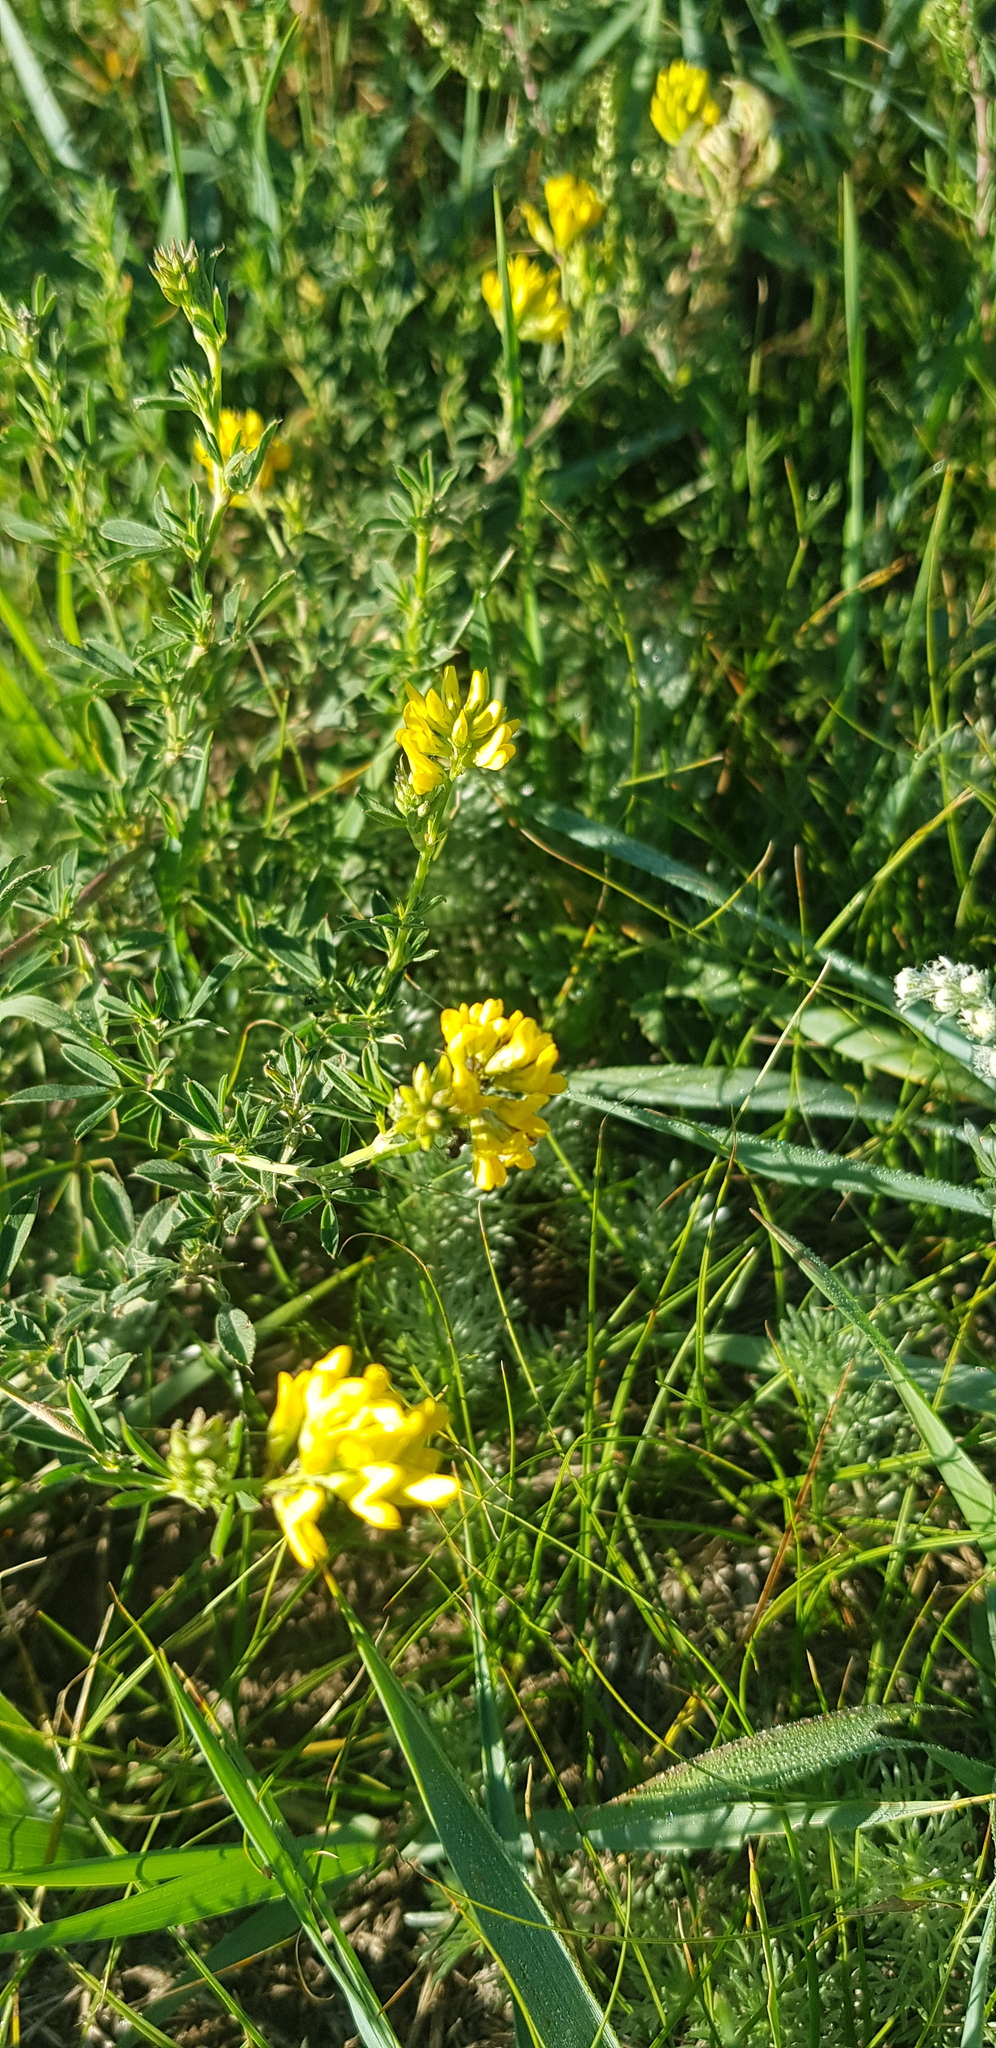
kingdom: Plantae
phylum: Tracheophyta
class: Magnoliopsida
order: Fabales
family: Fabaceae
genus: Medicago
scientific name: Medicago falcata
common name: Sickle medick
